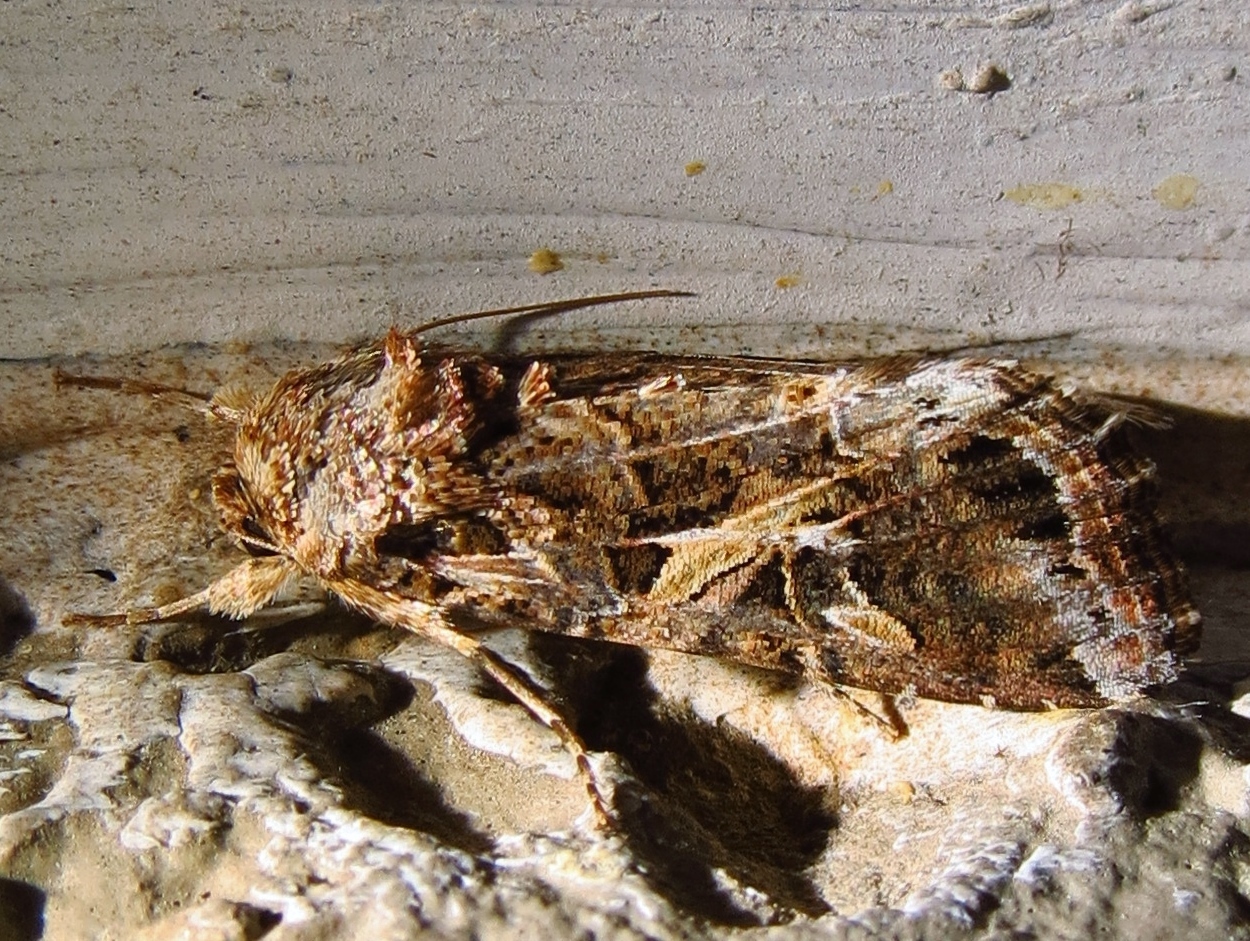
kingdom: Animalia
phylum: Arthropoda
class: Insecta
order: Lepidoptera
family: Noctuidae
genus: Spodoptera
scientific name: Spodoptera frugiperda
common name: Fall armyworm
